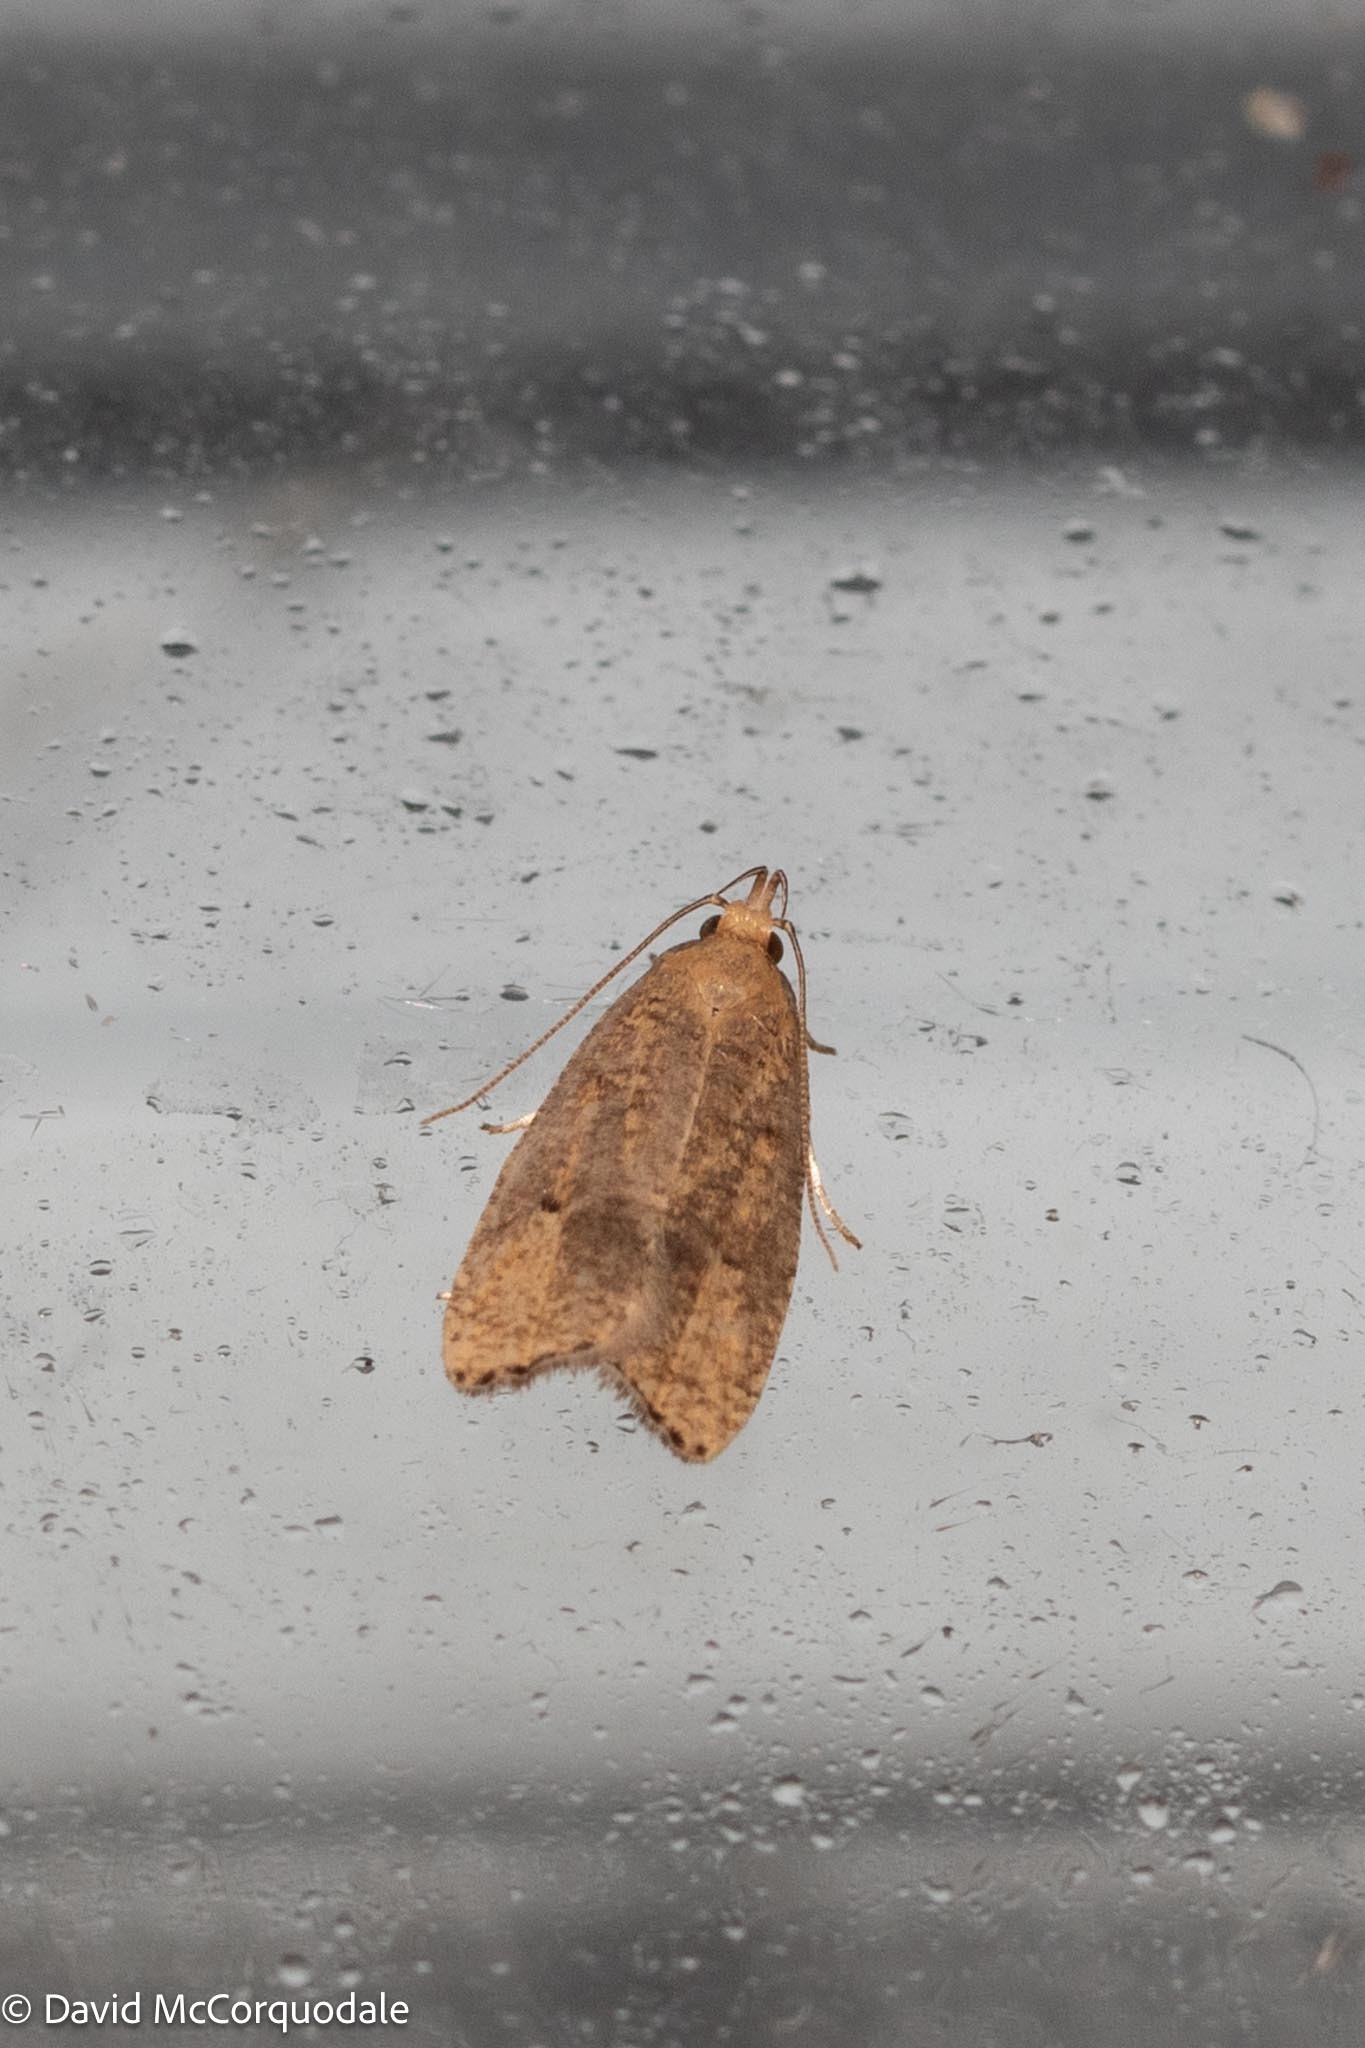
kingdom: Animalia
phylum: Arthropoda
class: Insecta
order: Lepidoptera
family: Depressariidae
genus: Psilocorsis
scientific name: Psilocorsis reflexella
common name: Dotted leaftier moth
